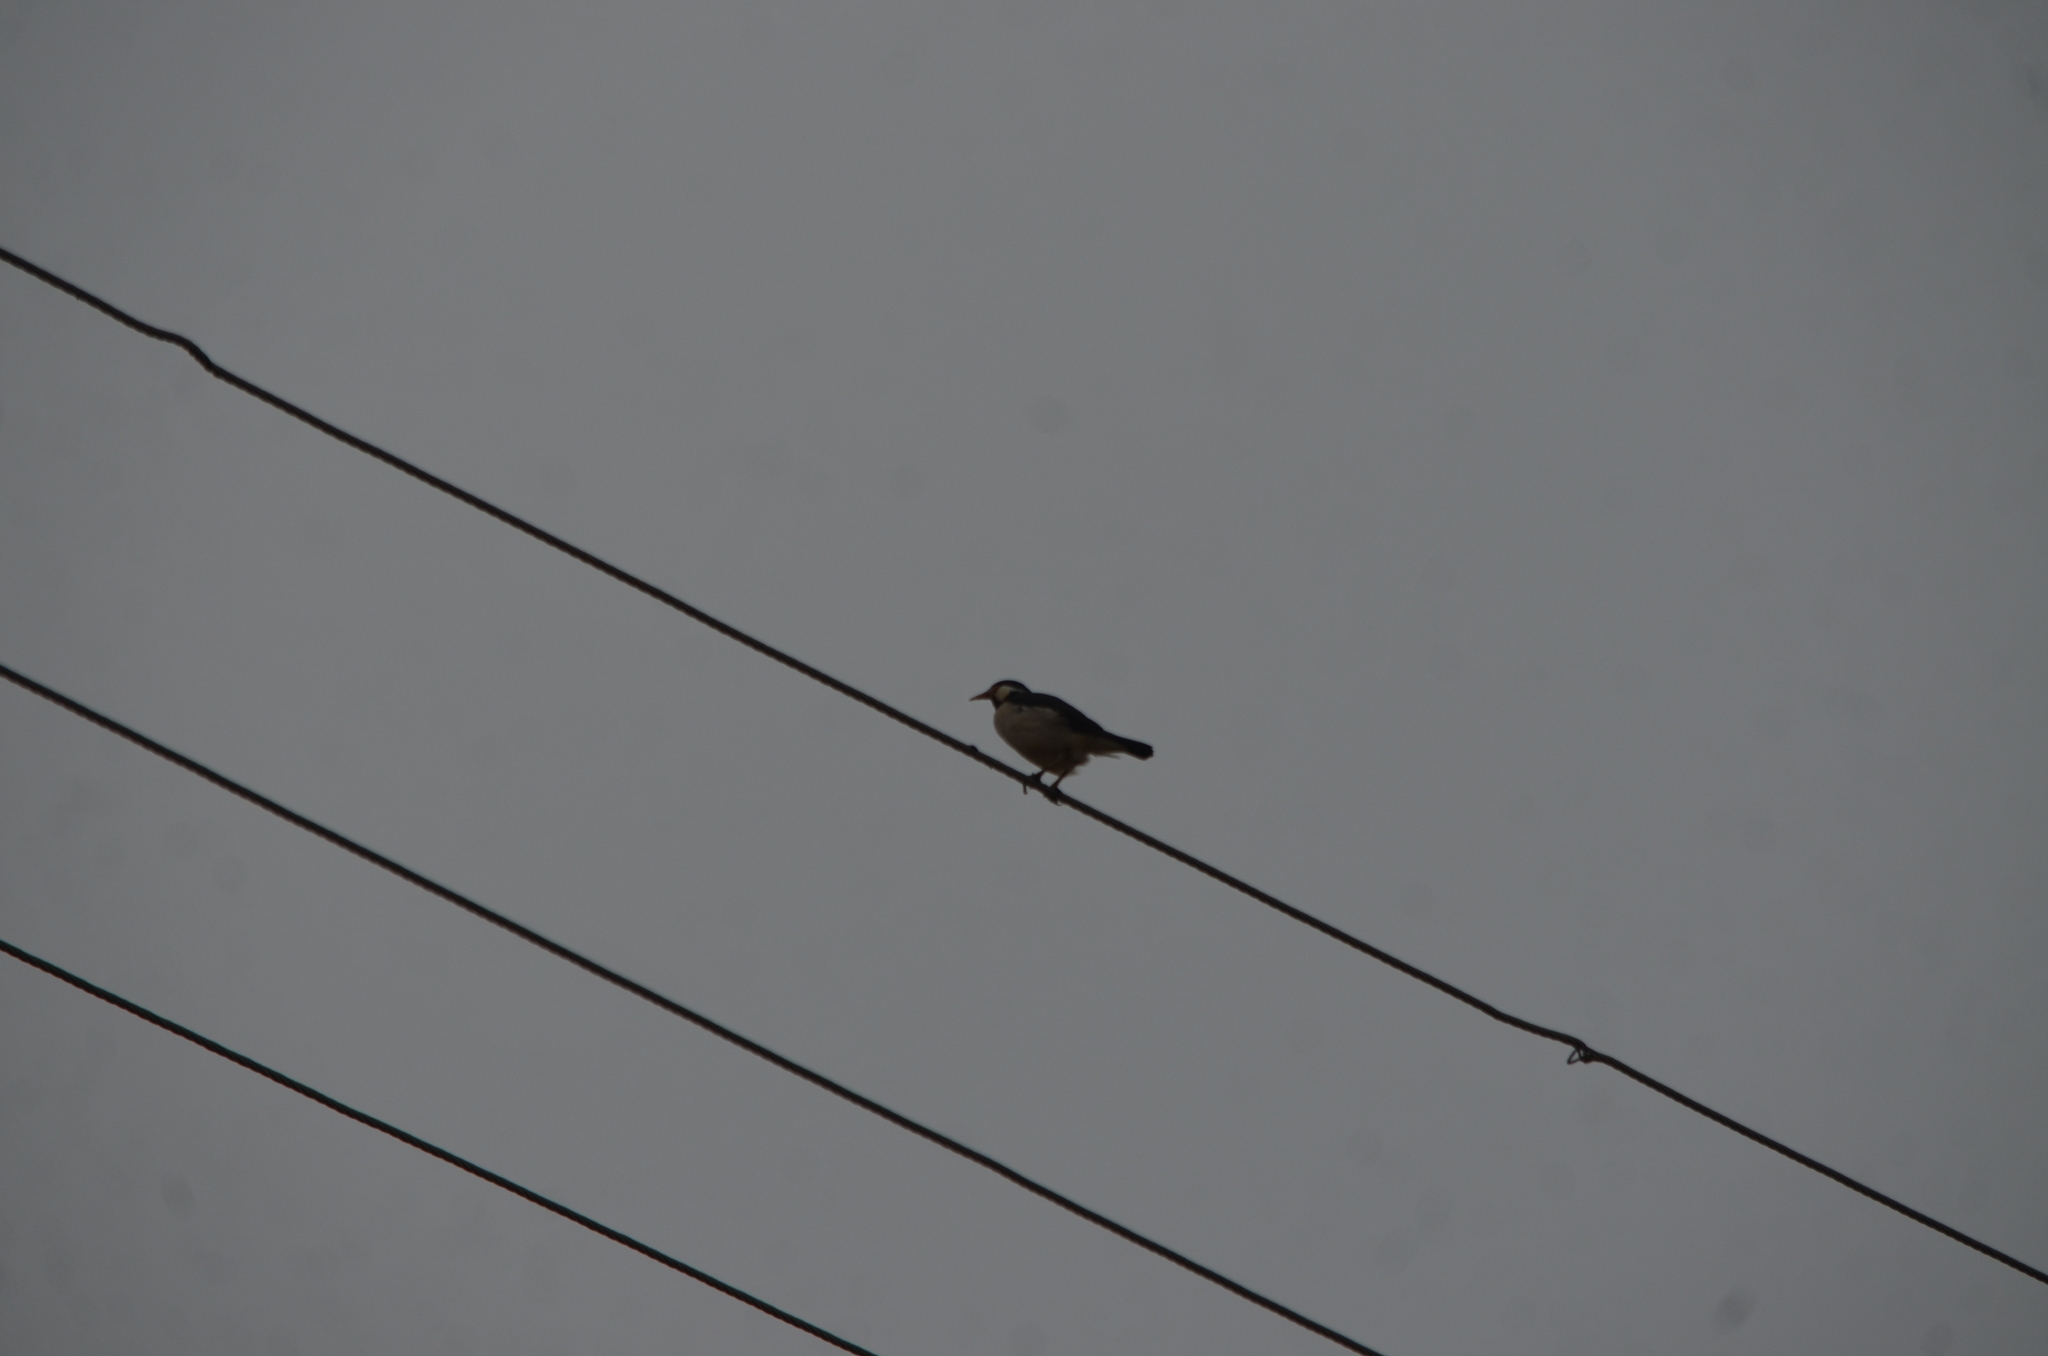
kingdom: Animalia
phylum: Chordata
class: Aves
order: Passeriformes
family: Sturnidae
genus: Gracupica
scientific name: Gracupica contra
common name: Pied myna
